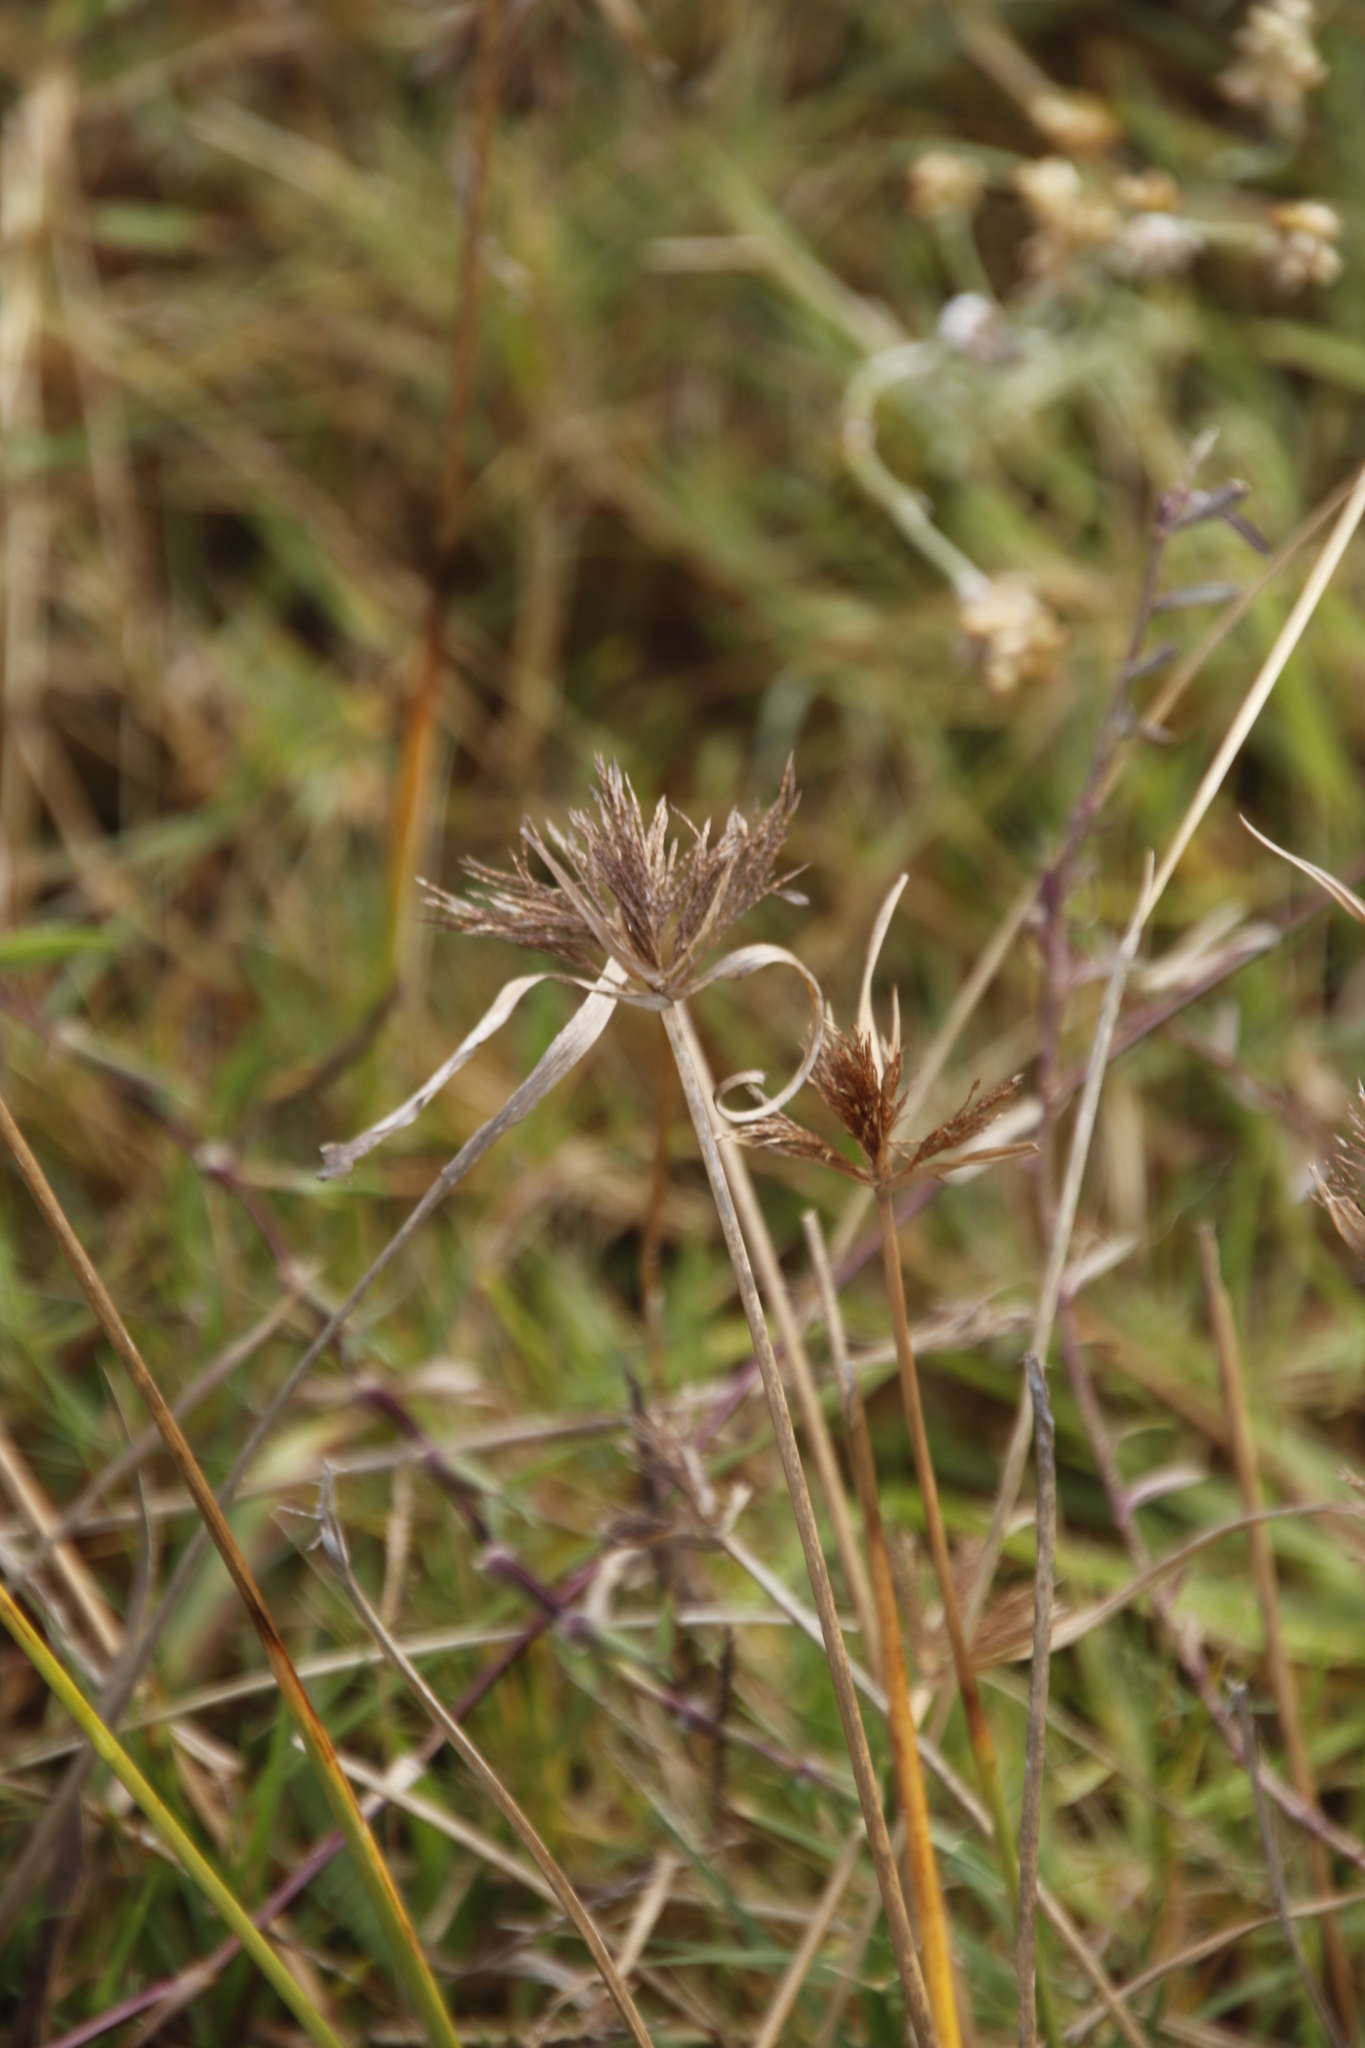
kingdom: Plantae
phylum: Tracheophyta
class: Liliopsida
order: Poales
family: Cyperaceae
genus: Cyperus
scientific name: Cyperus polystachyos
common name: Bunchy flat sedge
